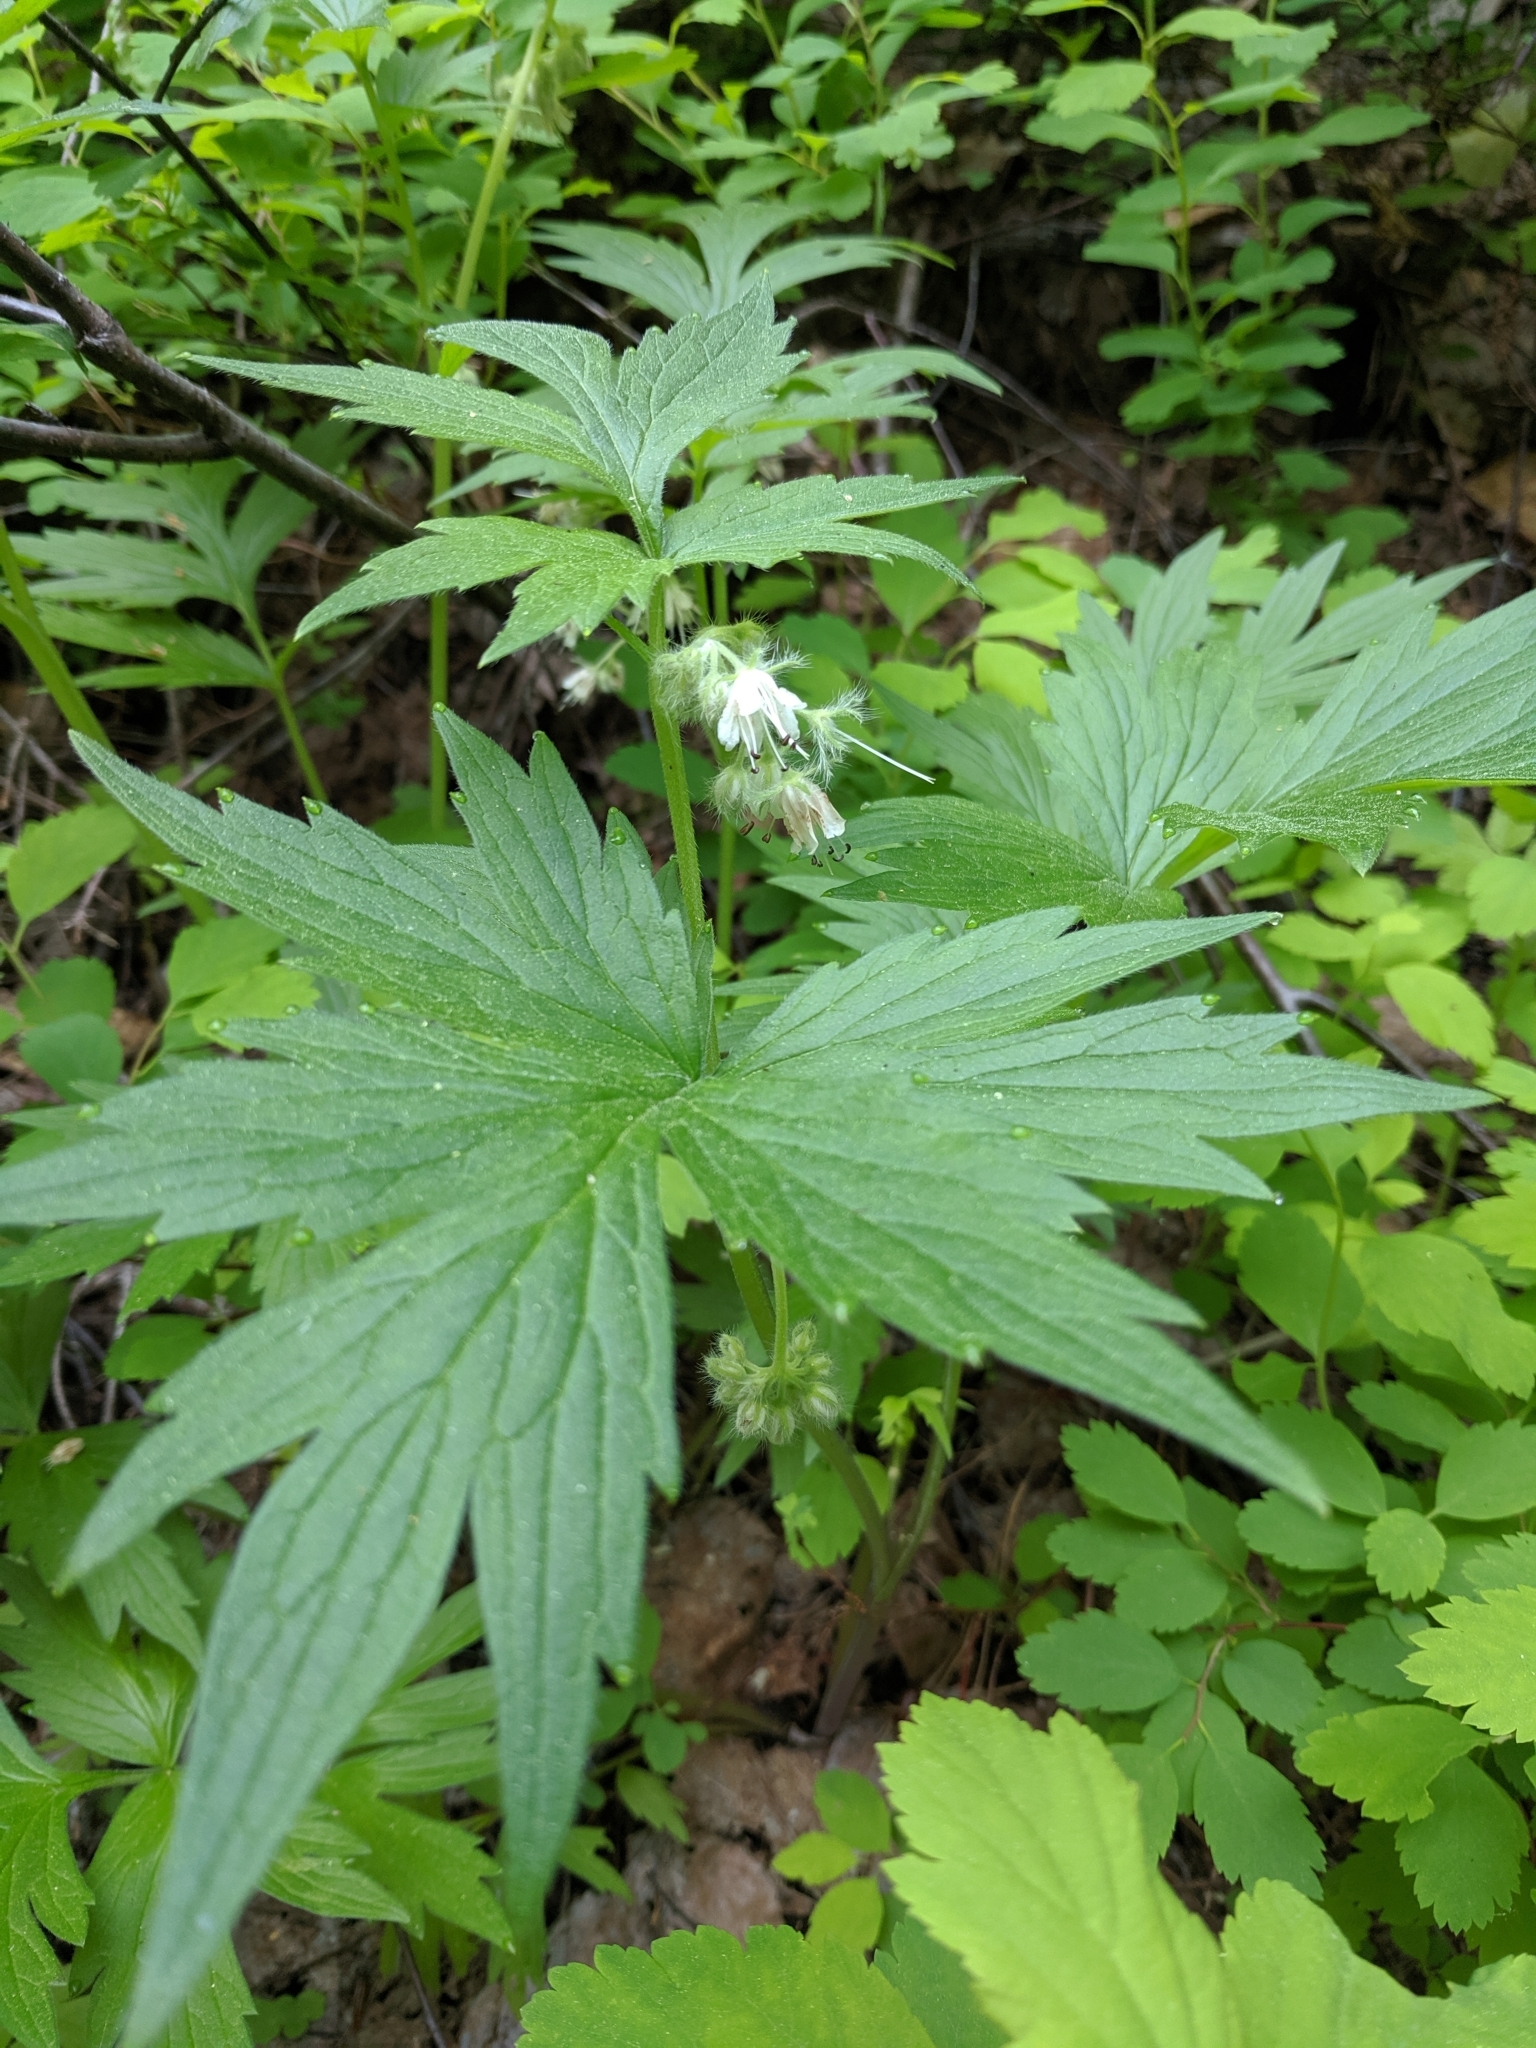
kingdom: Plantae
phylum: Tracheophyta
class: Magnoliopsida
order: Boraginales
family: Hydrophyllaceae
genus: Hydrophyllum
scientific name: Hydrophyllum fendleri
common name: Fendler's waterleaf
